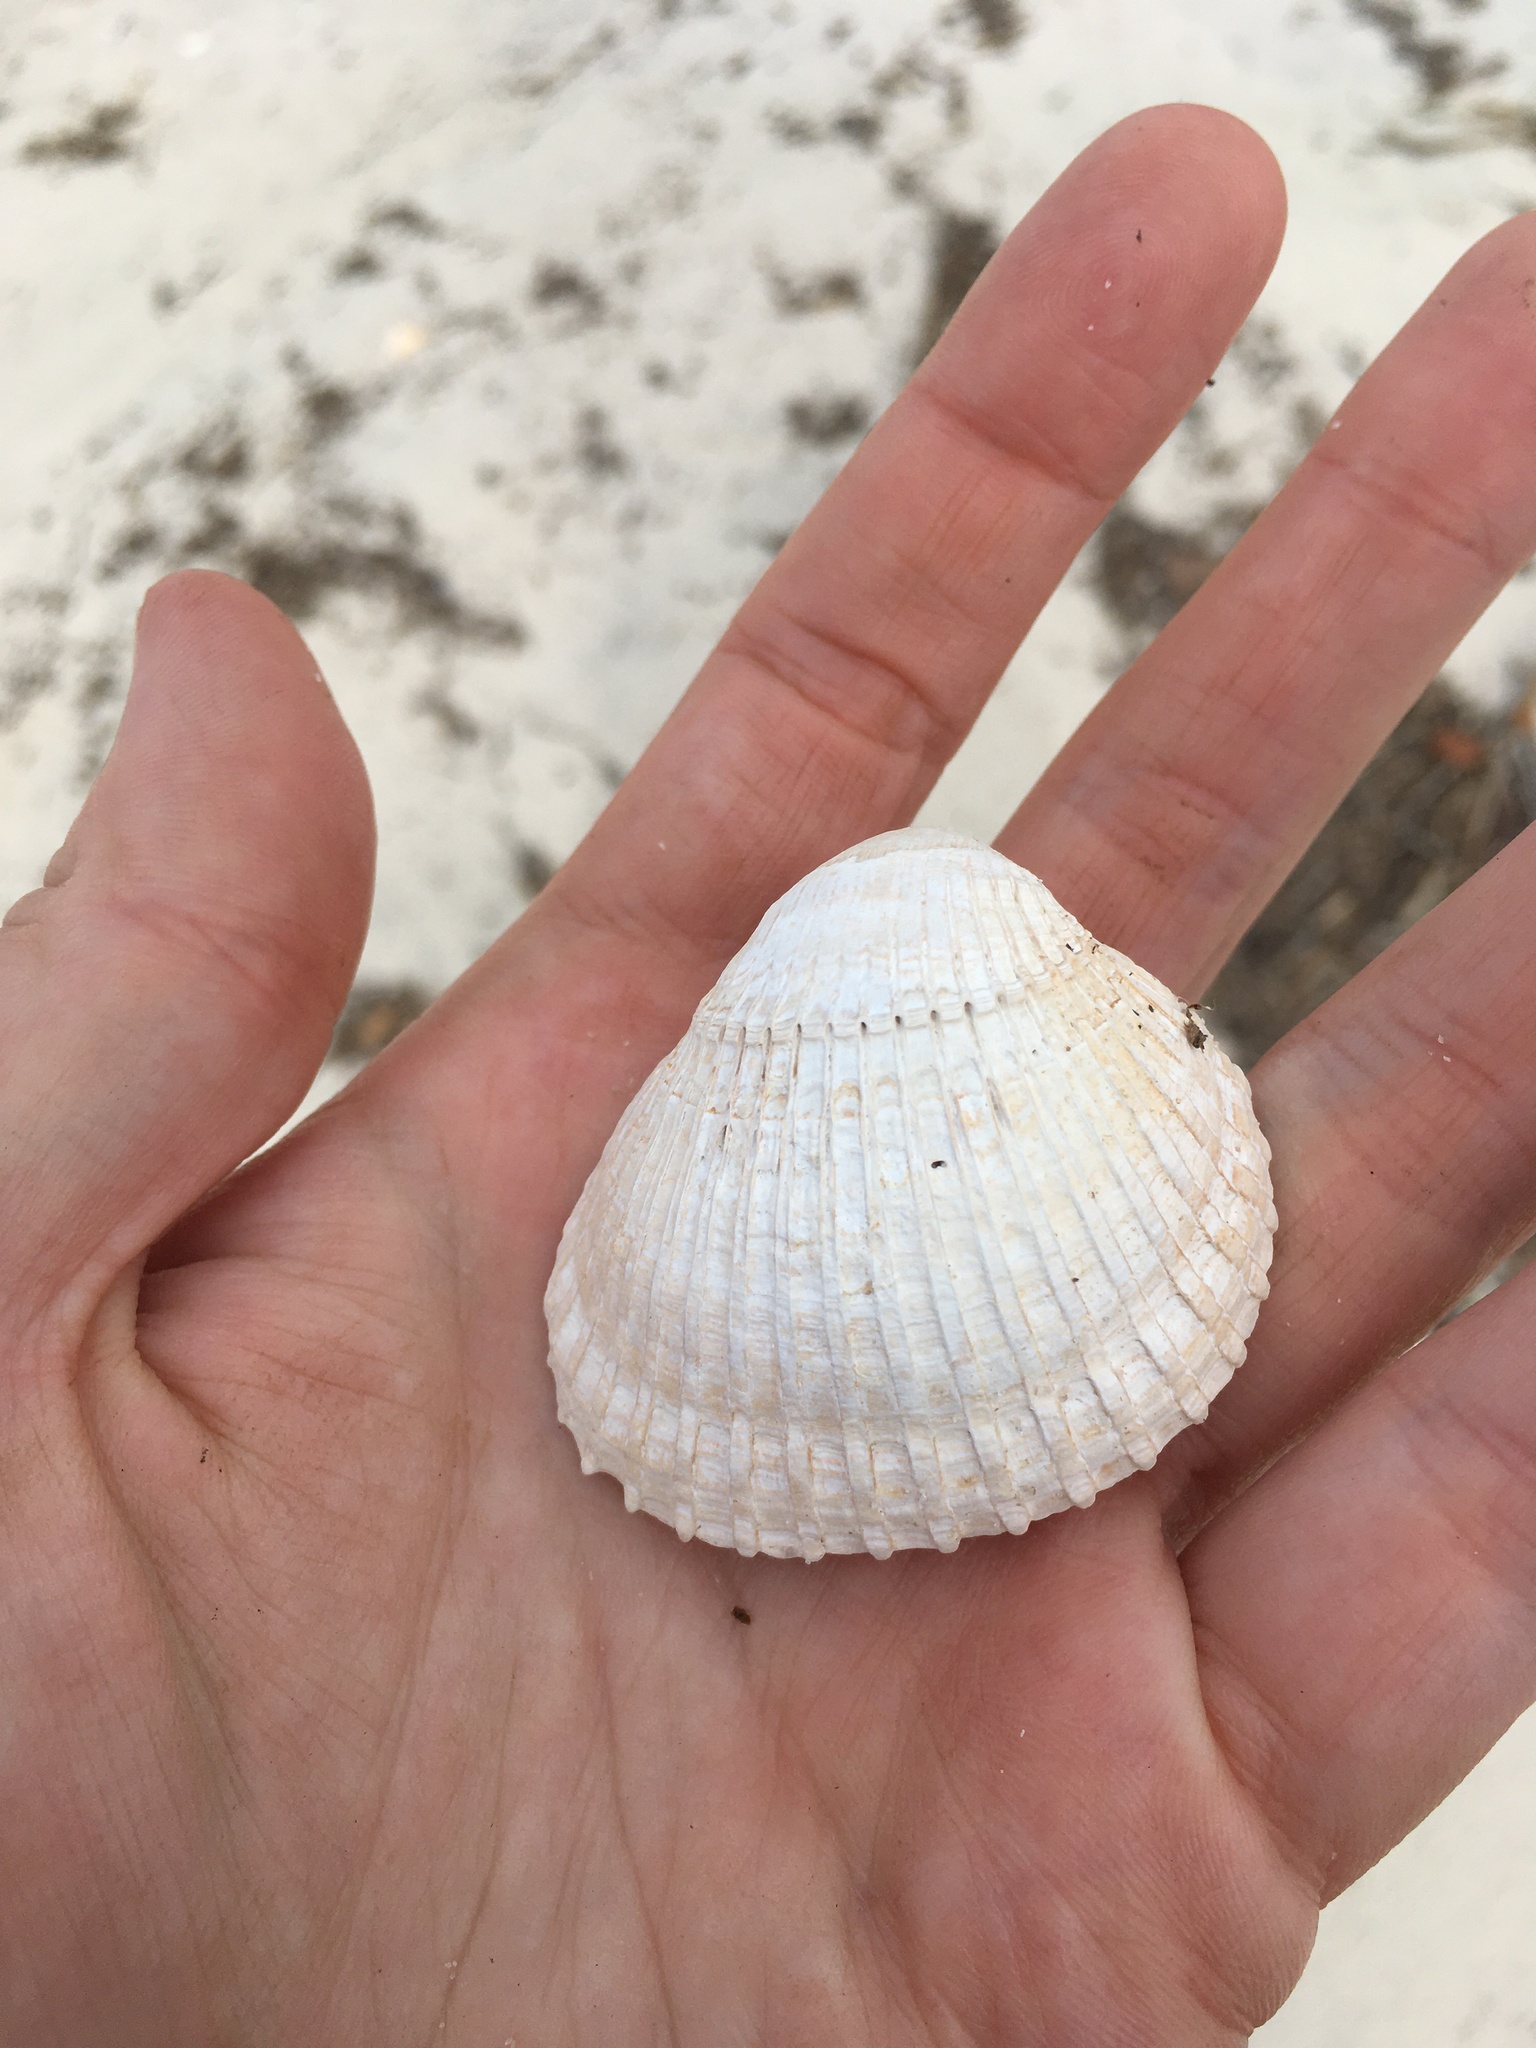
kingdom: Animalia
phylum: Mollusca
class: Bivalvia
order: Arcida
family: Arcidae
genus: Lunarca
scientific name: Lunarca ovalis
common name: Blood ark
